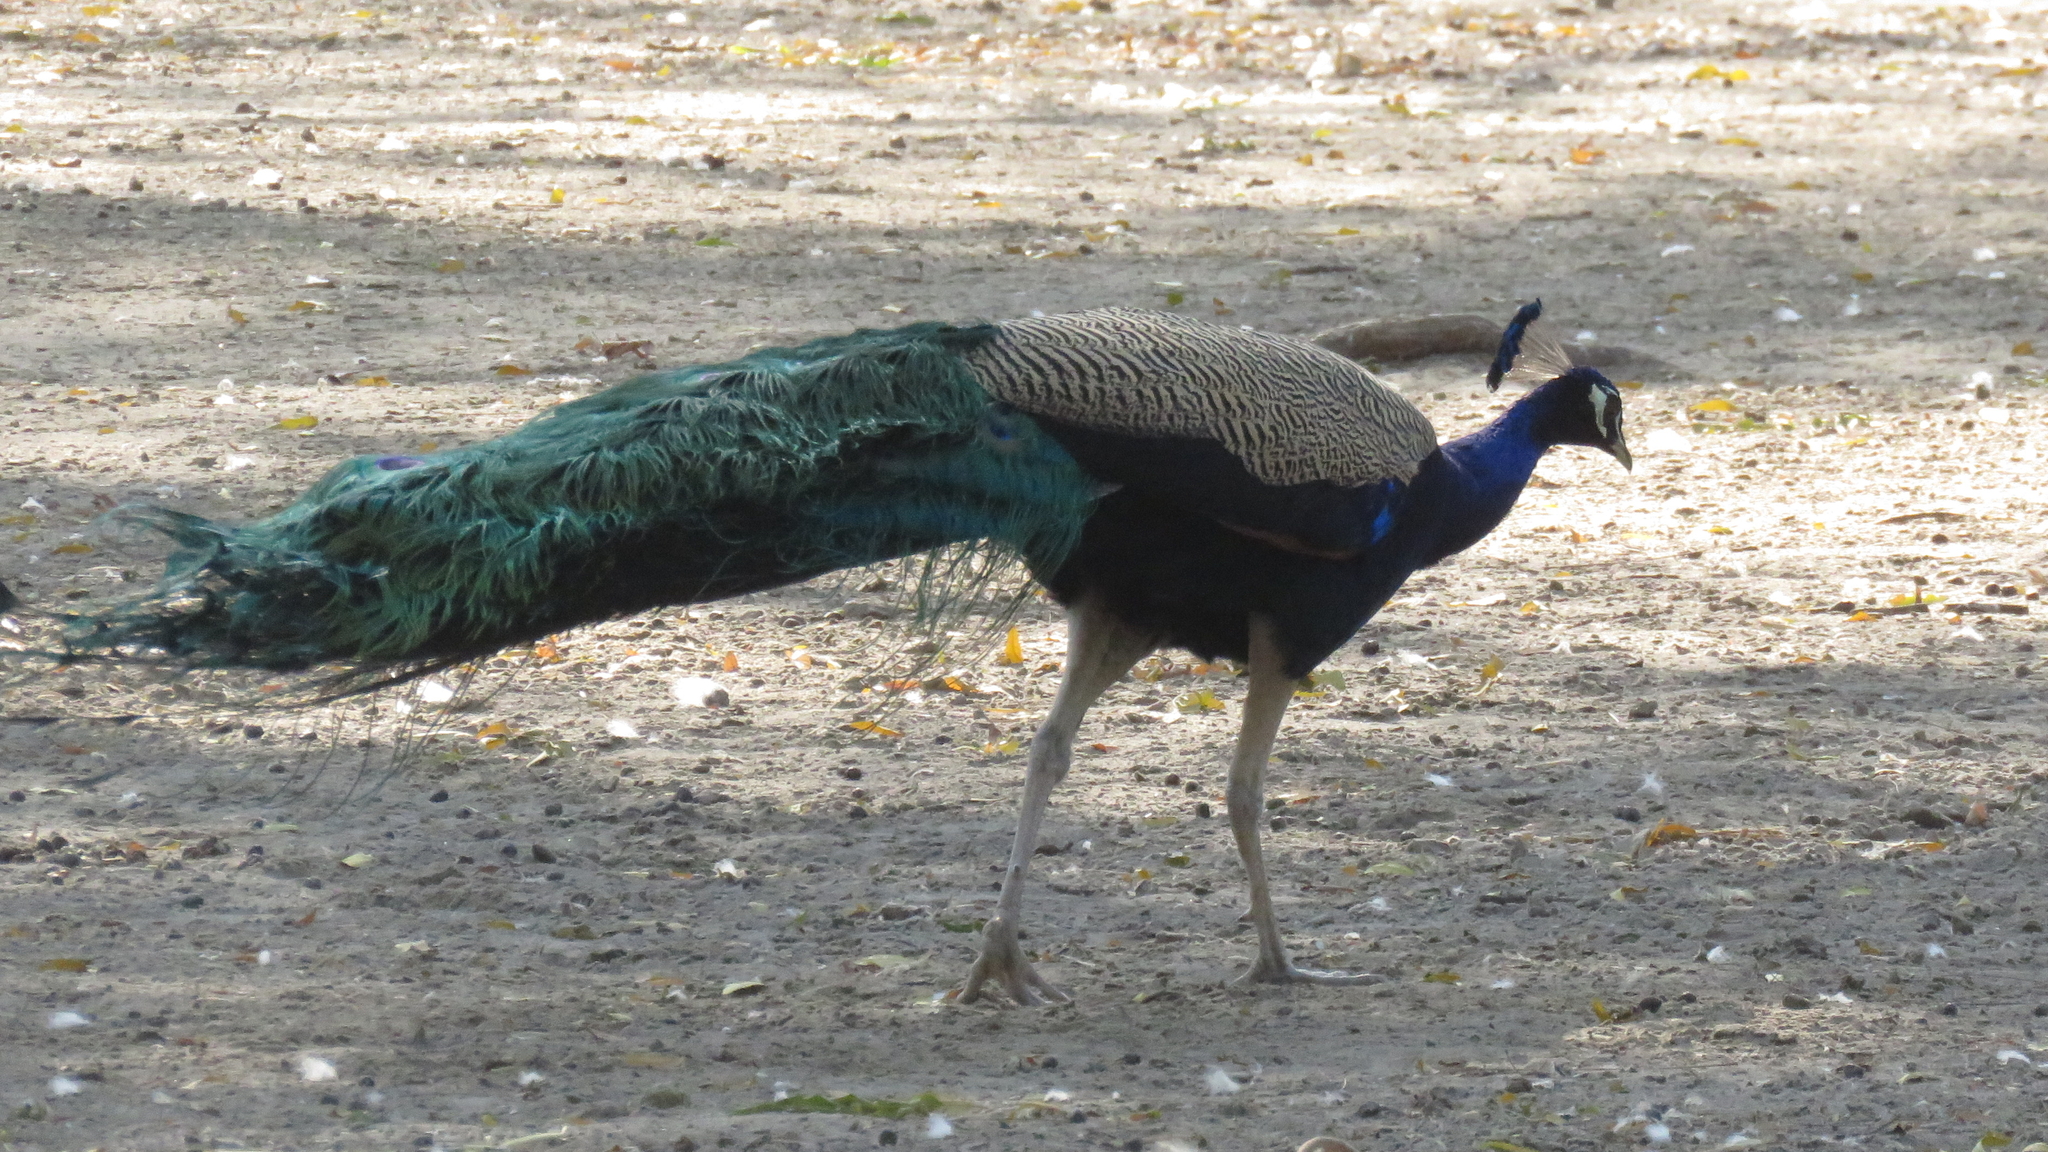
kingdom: Animalia
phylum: Chordata
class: Aves
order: Galliformes
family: Phasianidae
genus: Pavo
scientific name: Pavo cristatus
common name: Indian peafowl
